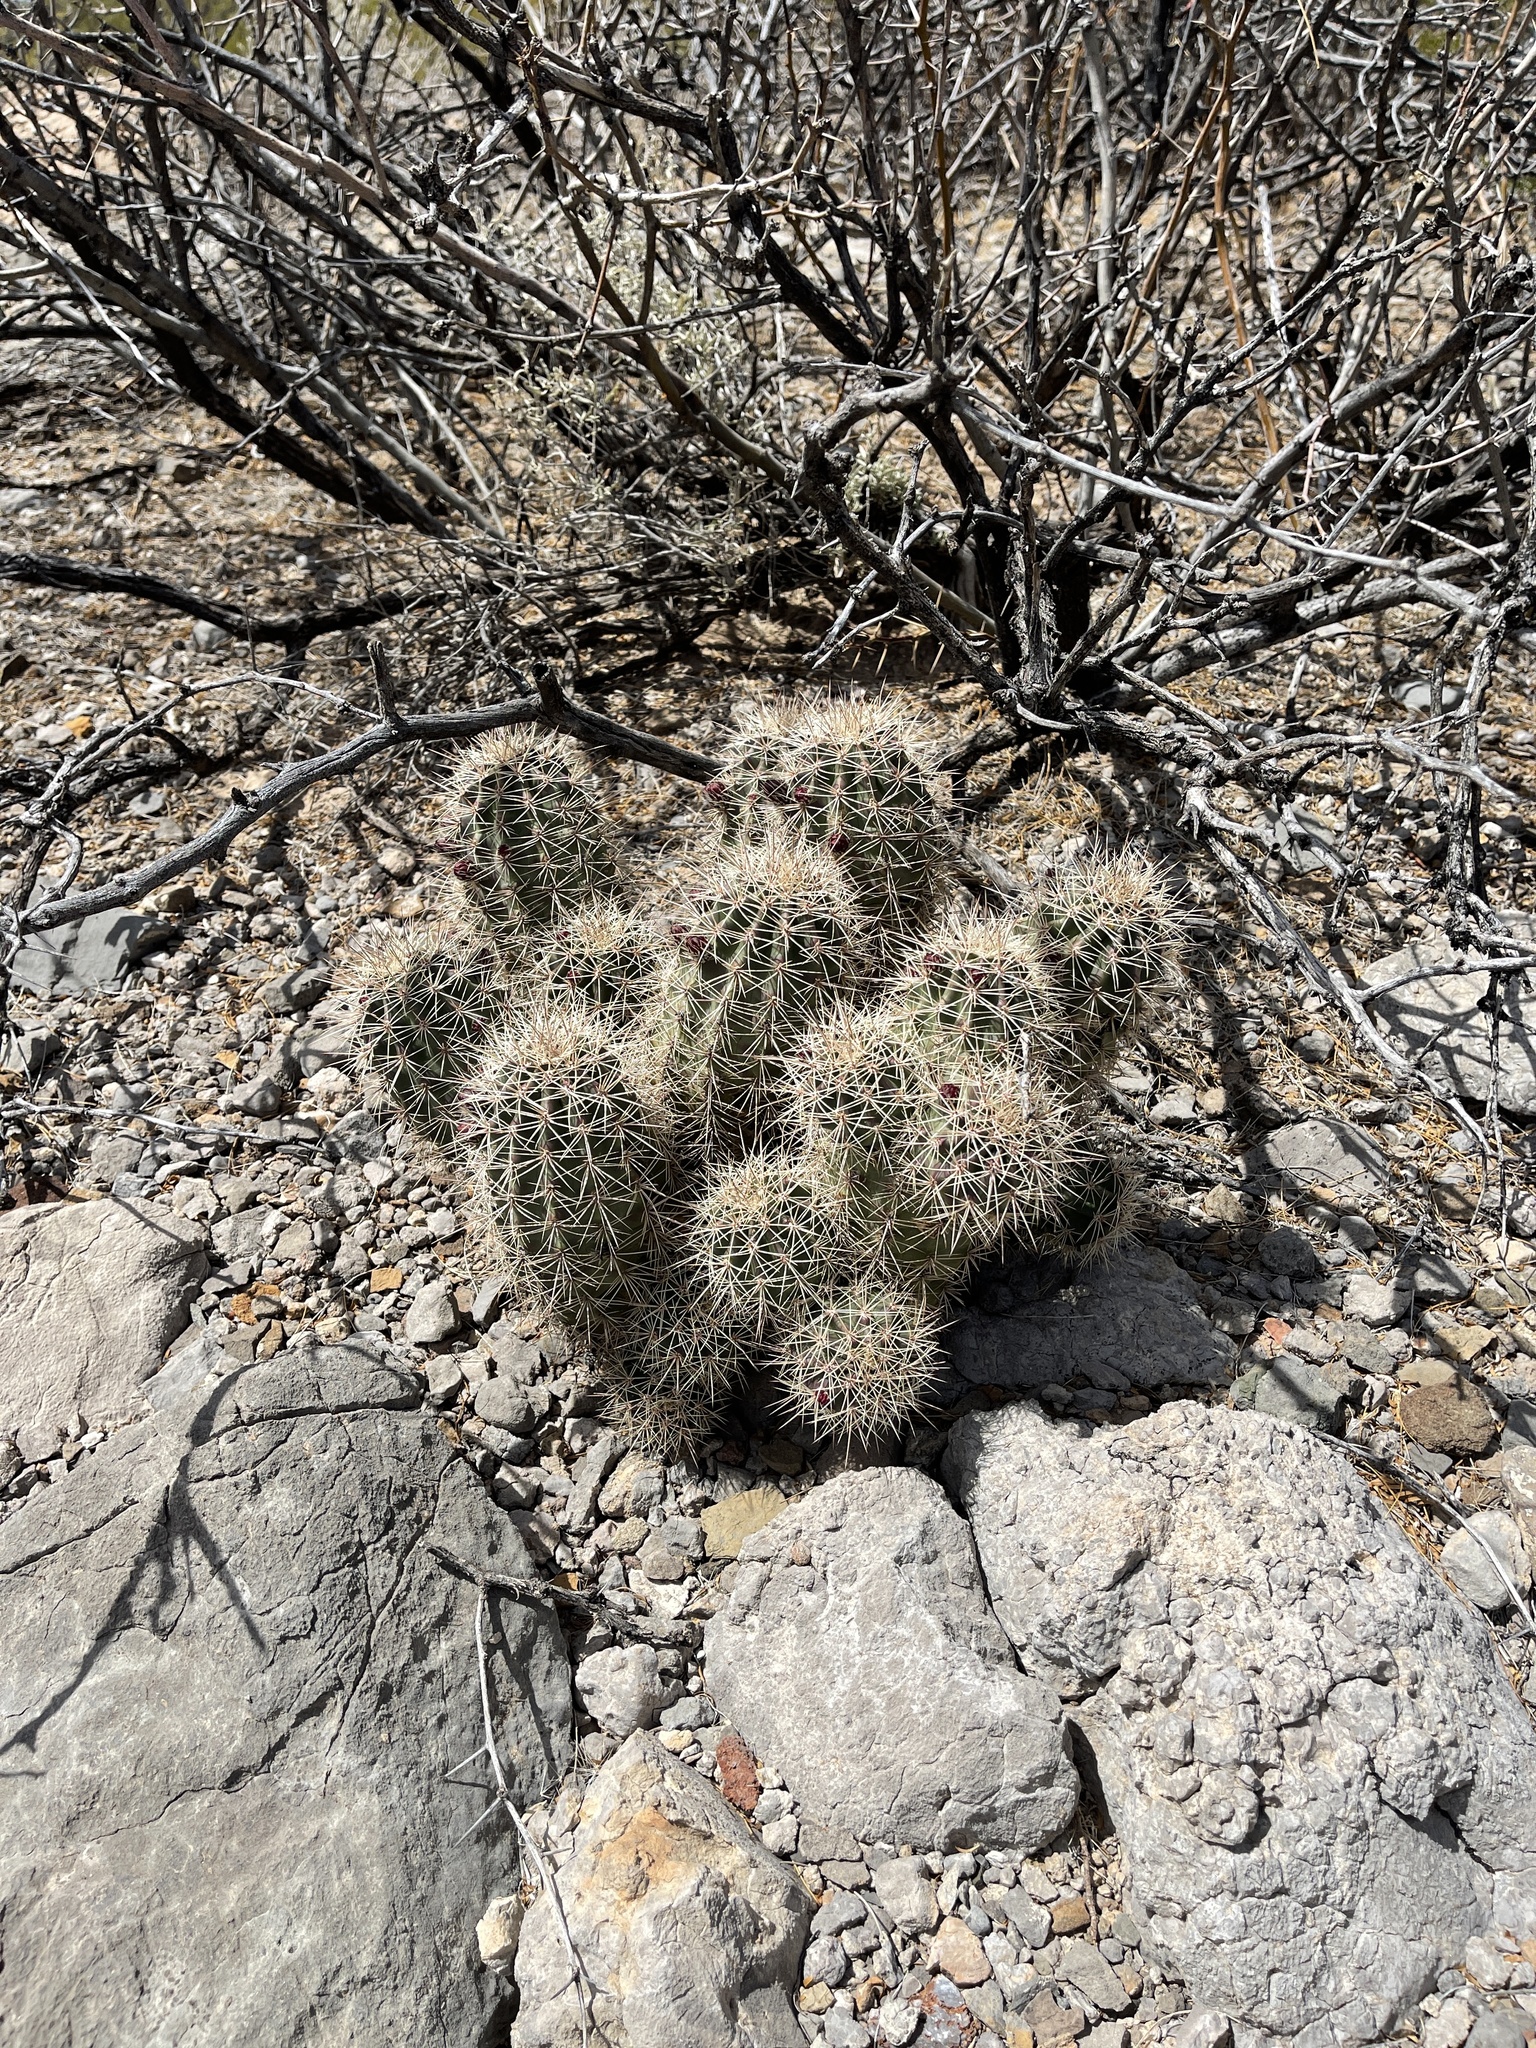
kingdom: Plantae
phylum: Tracheophyta
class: Magnoliopsida
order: Caryophyllales
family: Cactaceae
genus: Echinocereus
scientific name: Echinocereus coccineus
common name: Scarlet hedgehog cactus
